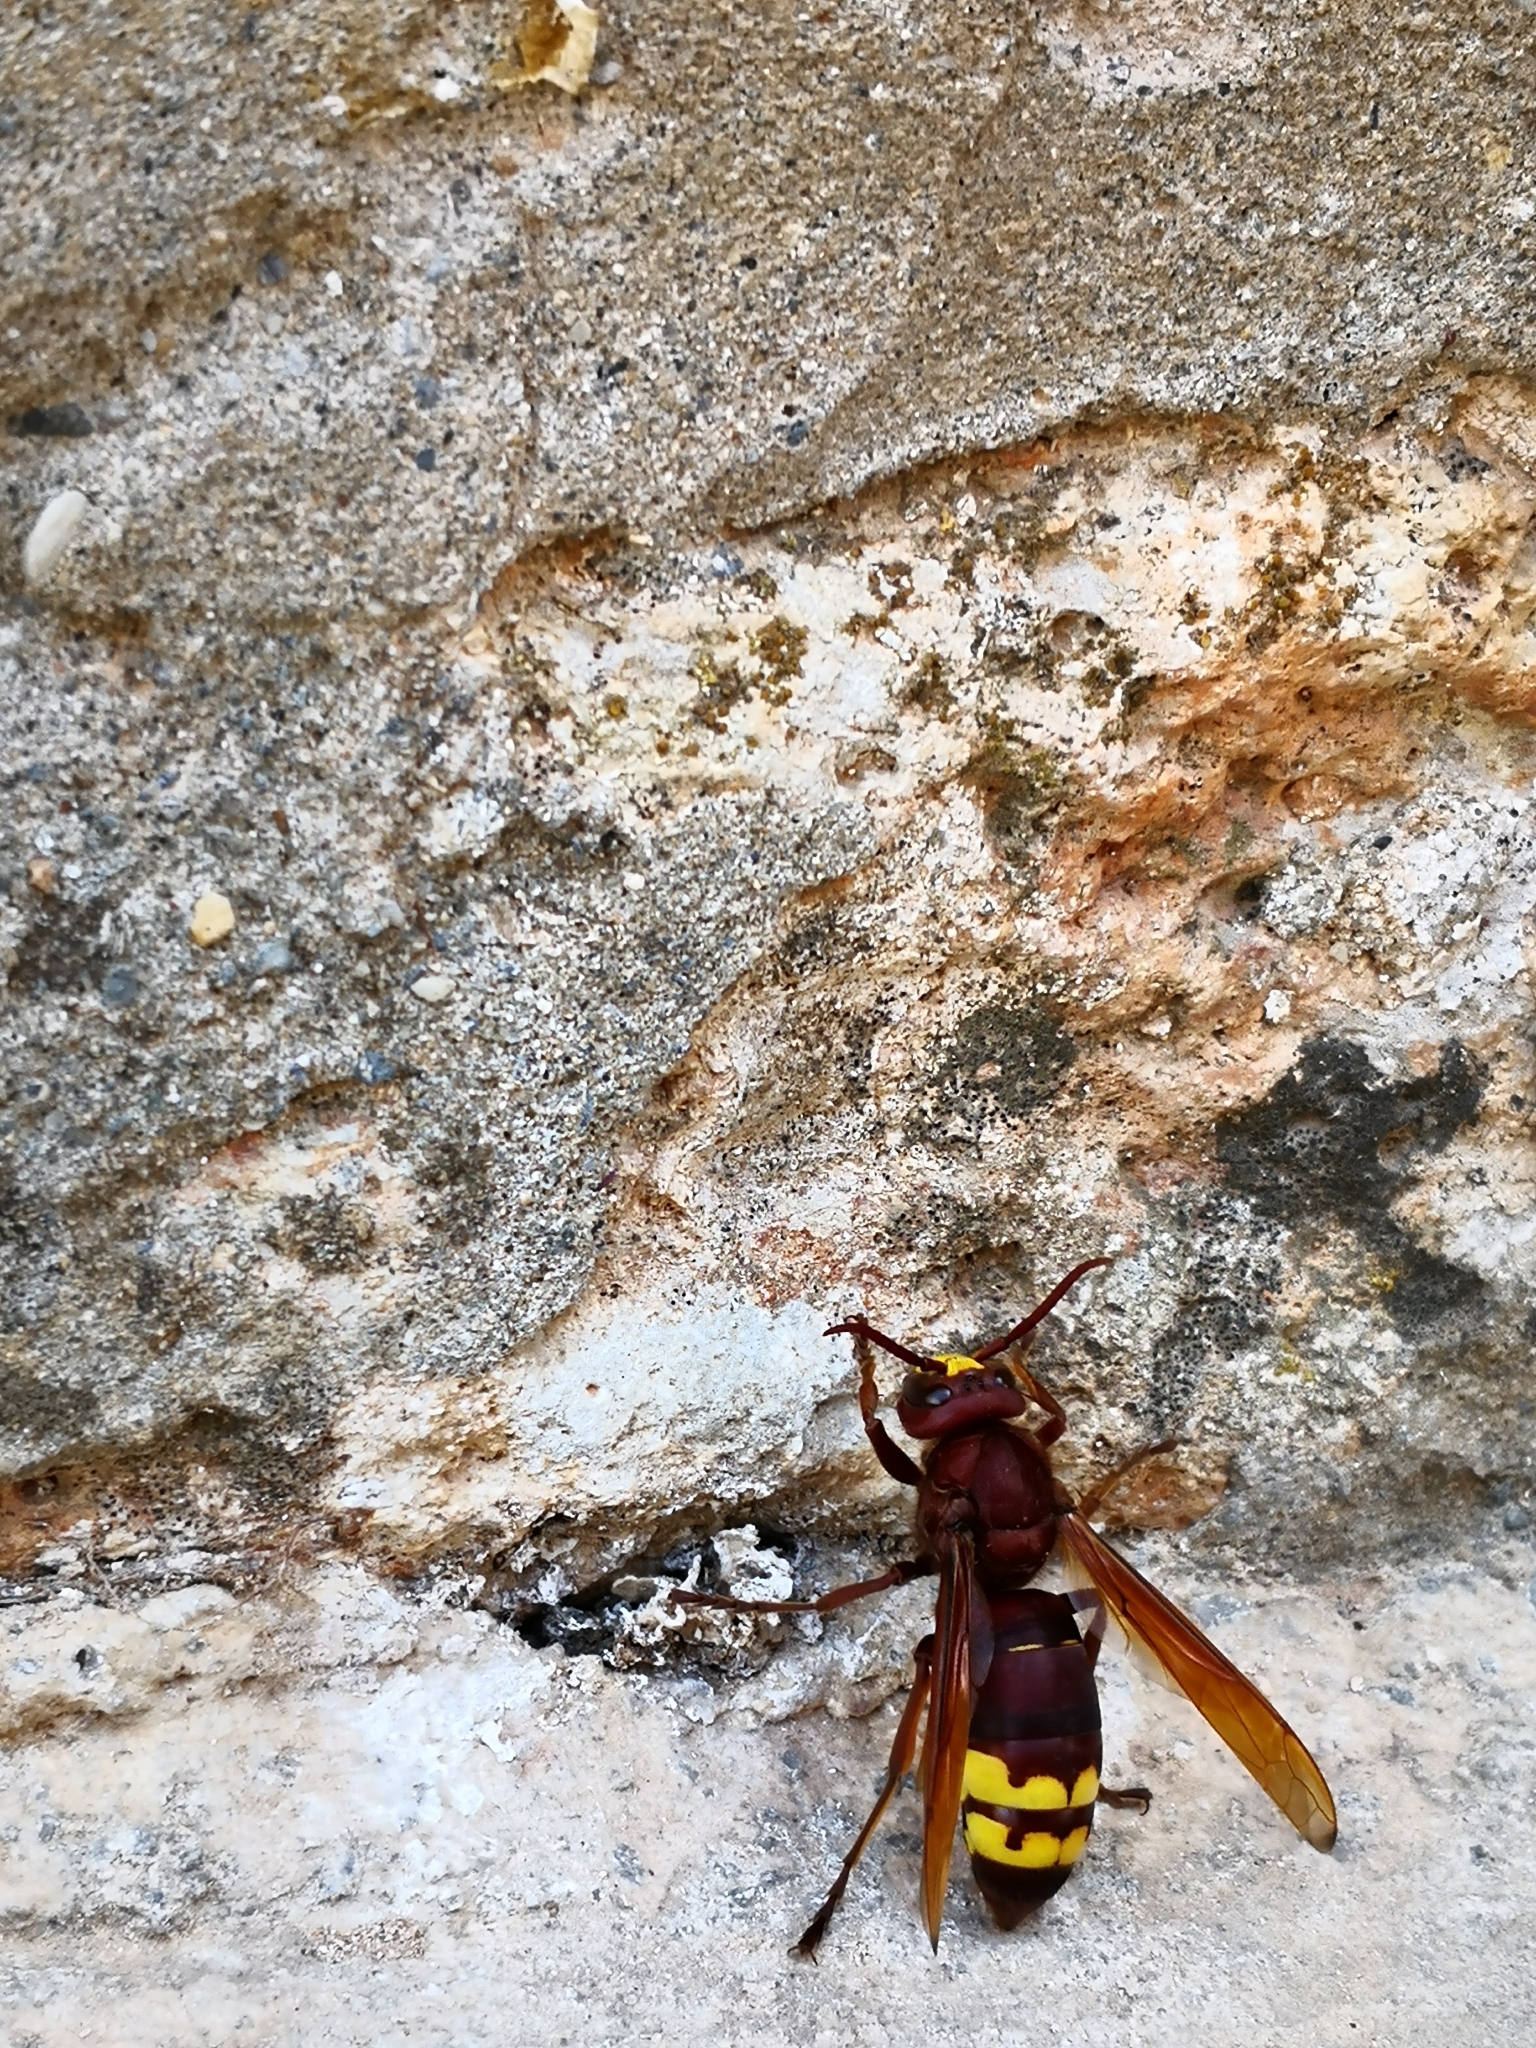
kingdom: Animalia
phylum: Arthropoda
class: Insecta
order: Hymenoptera
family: Vespidae
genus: Vespa
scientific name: Vespa orientalis
